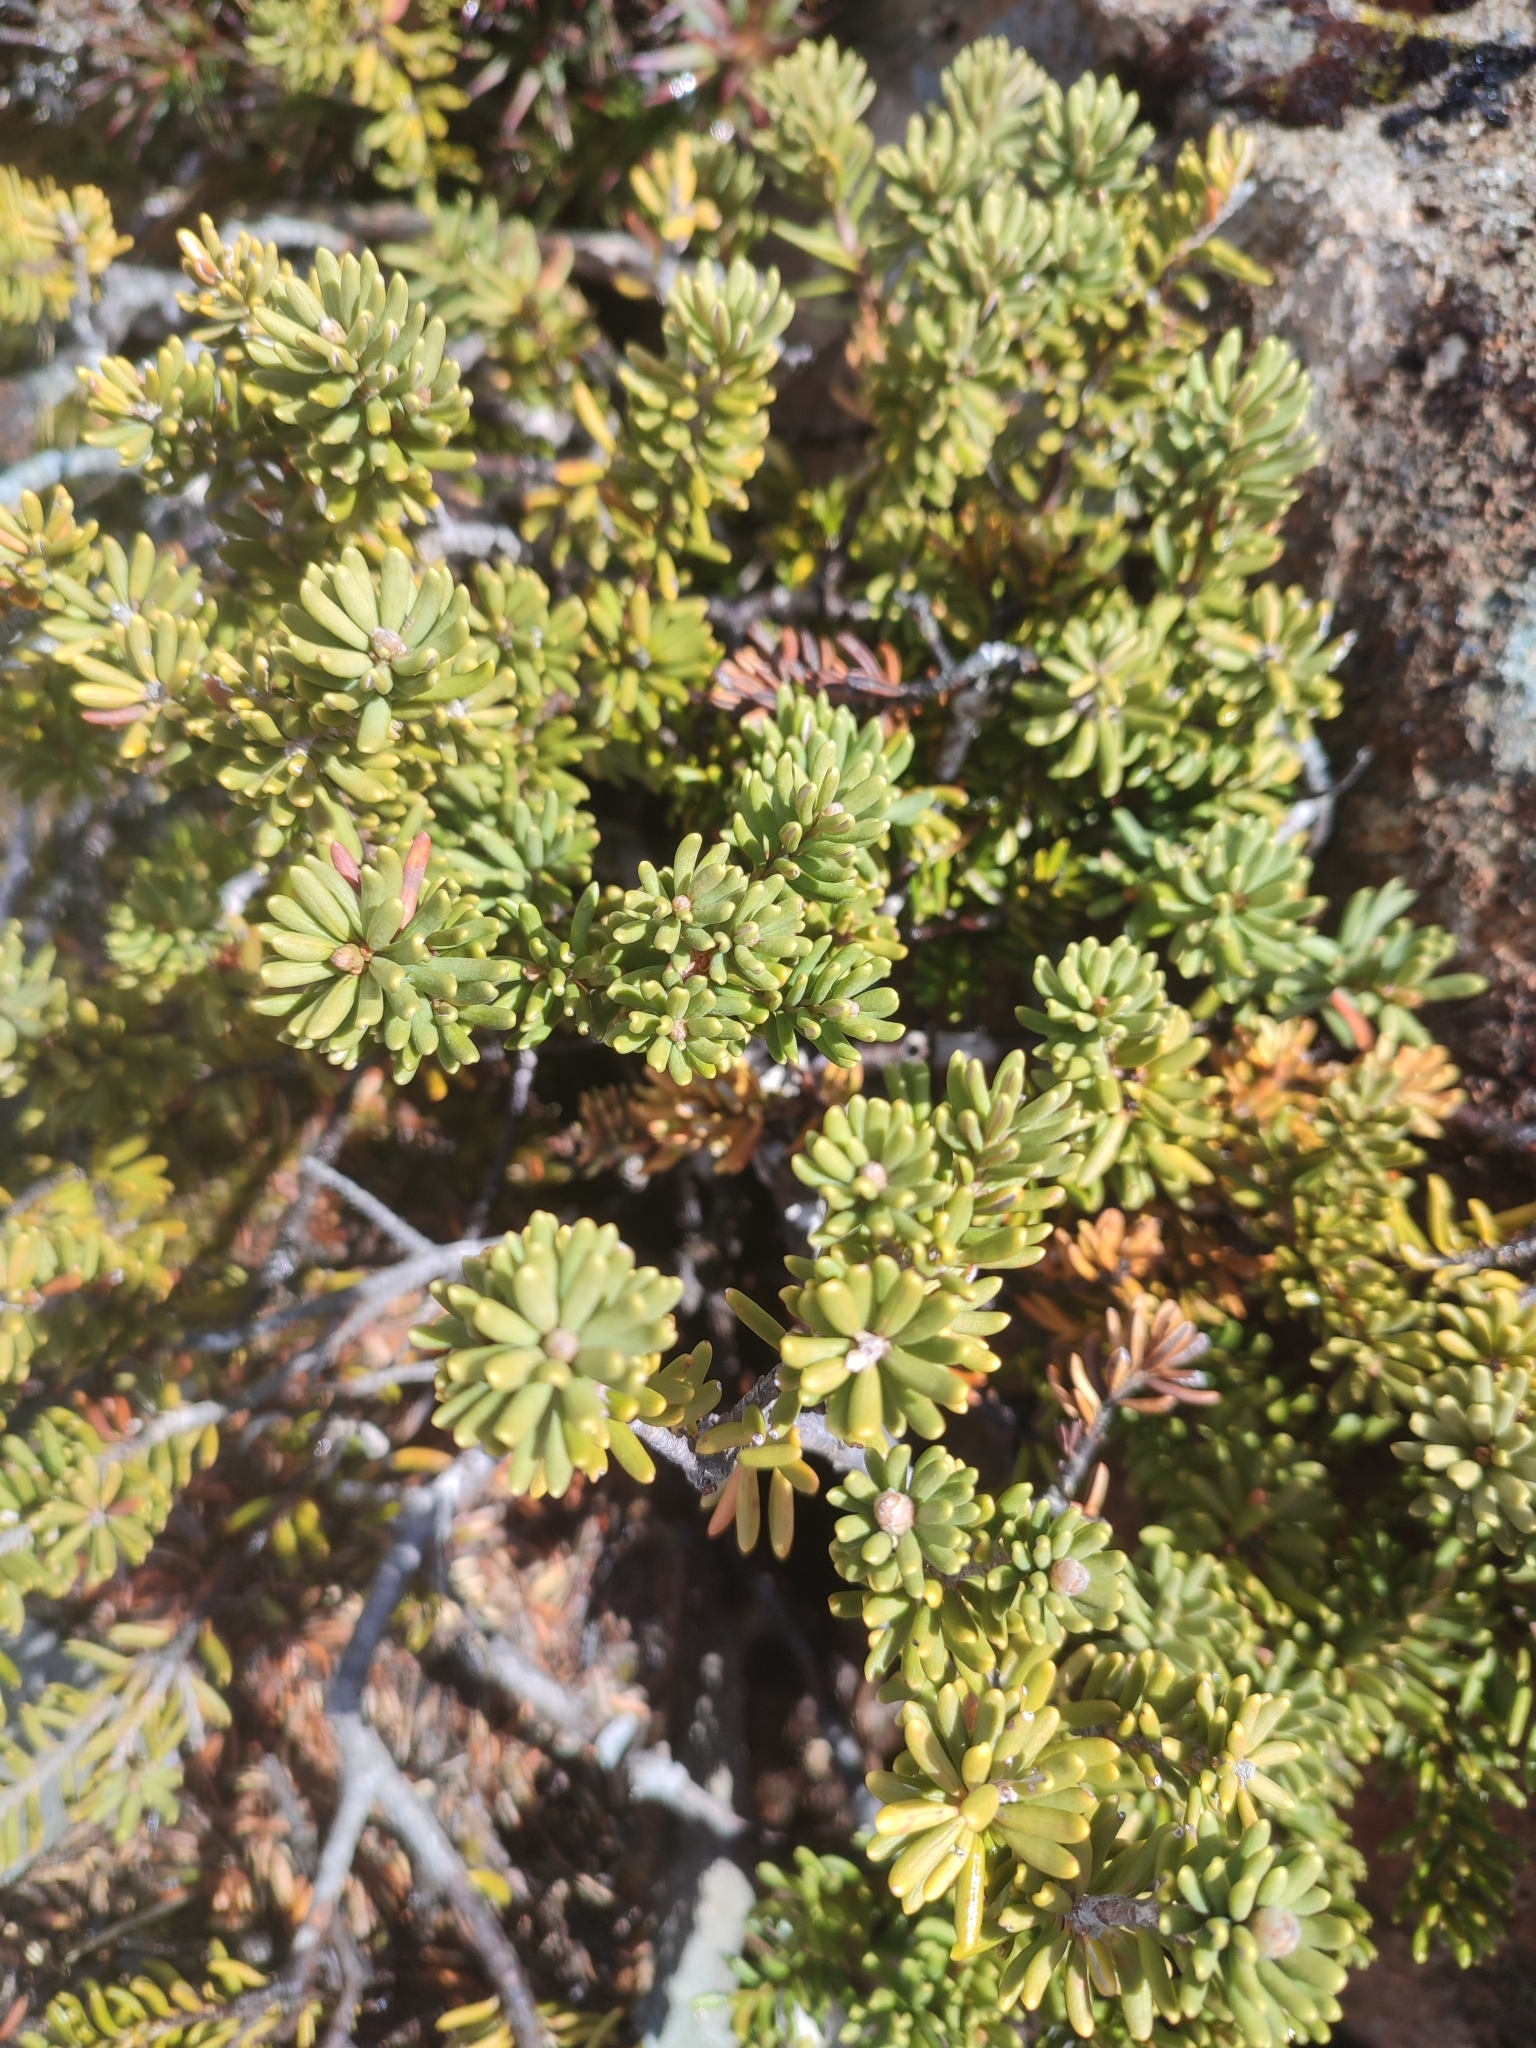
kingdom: Plantae
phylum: Tracheophyta
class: Magnoliopsida
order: Proteales
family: Proteaceae
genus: Orites
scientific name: Orites revolutus
